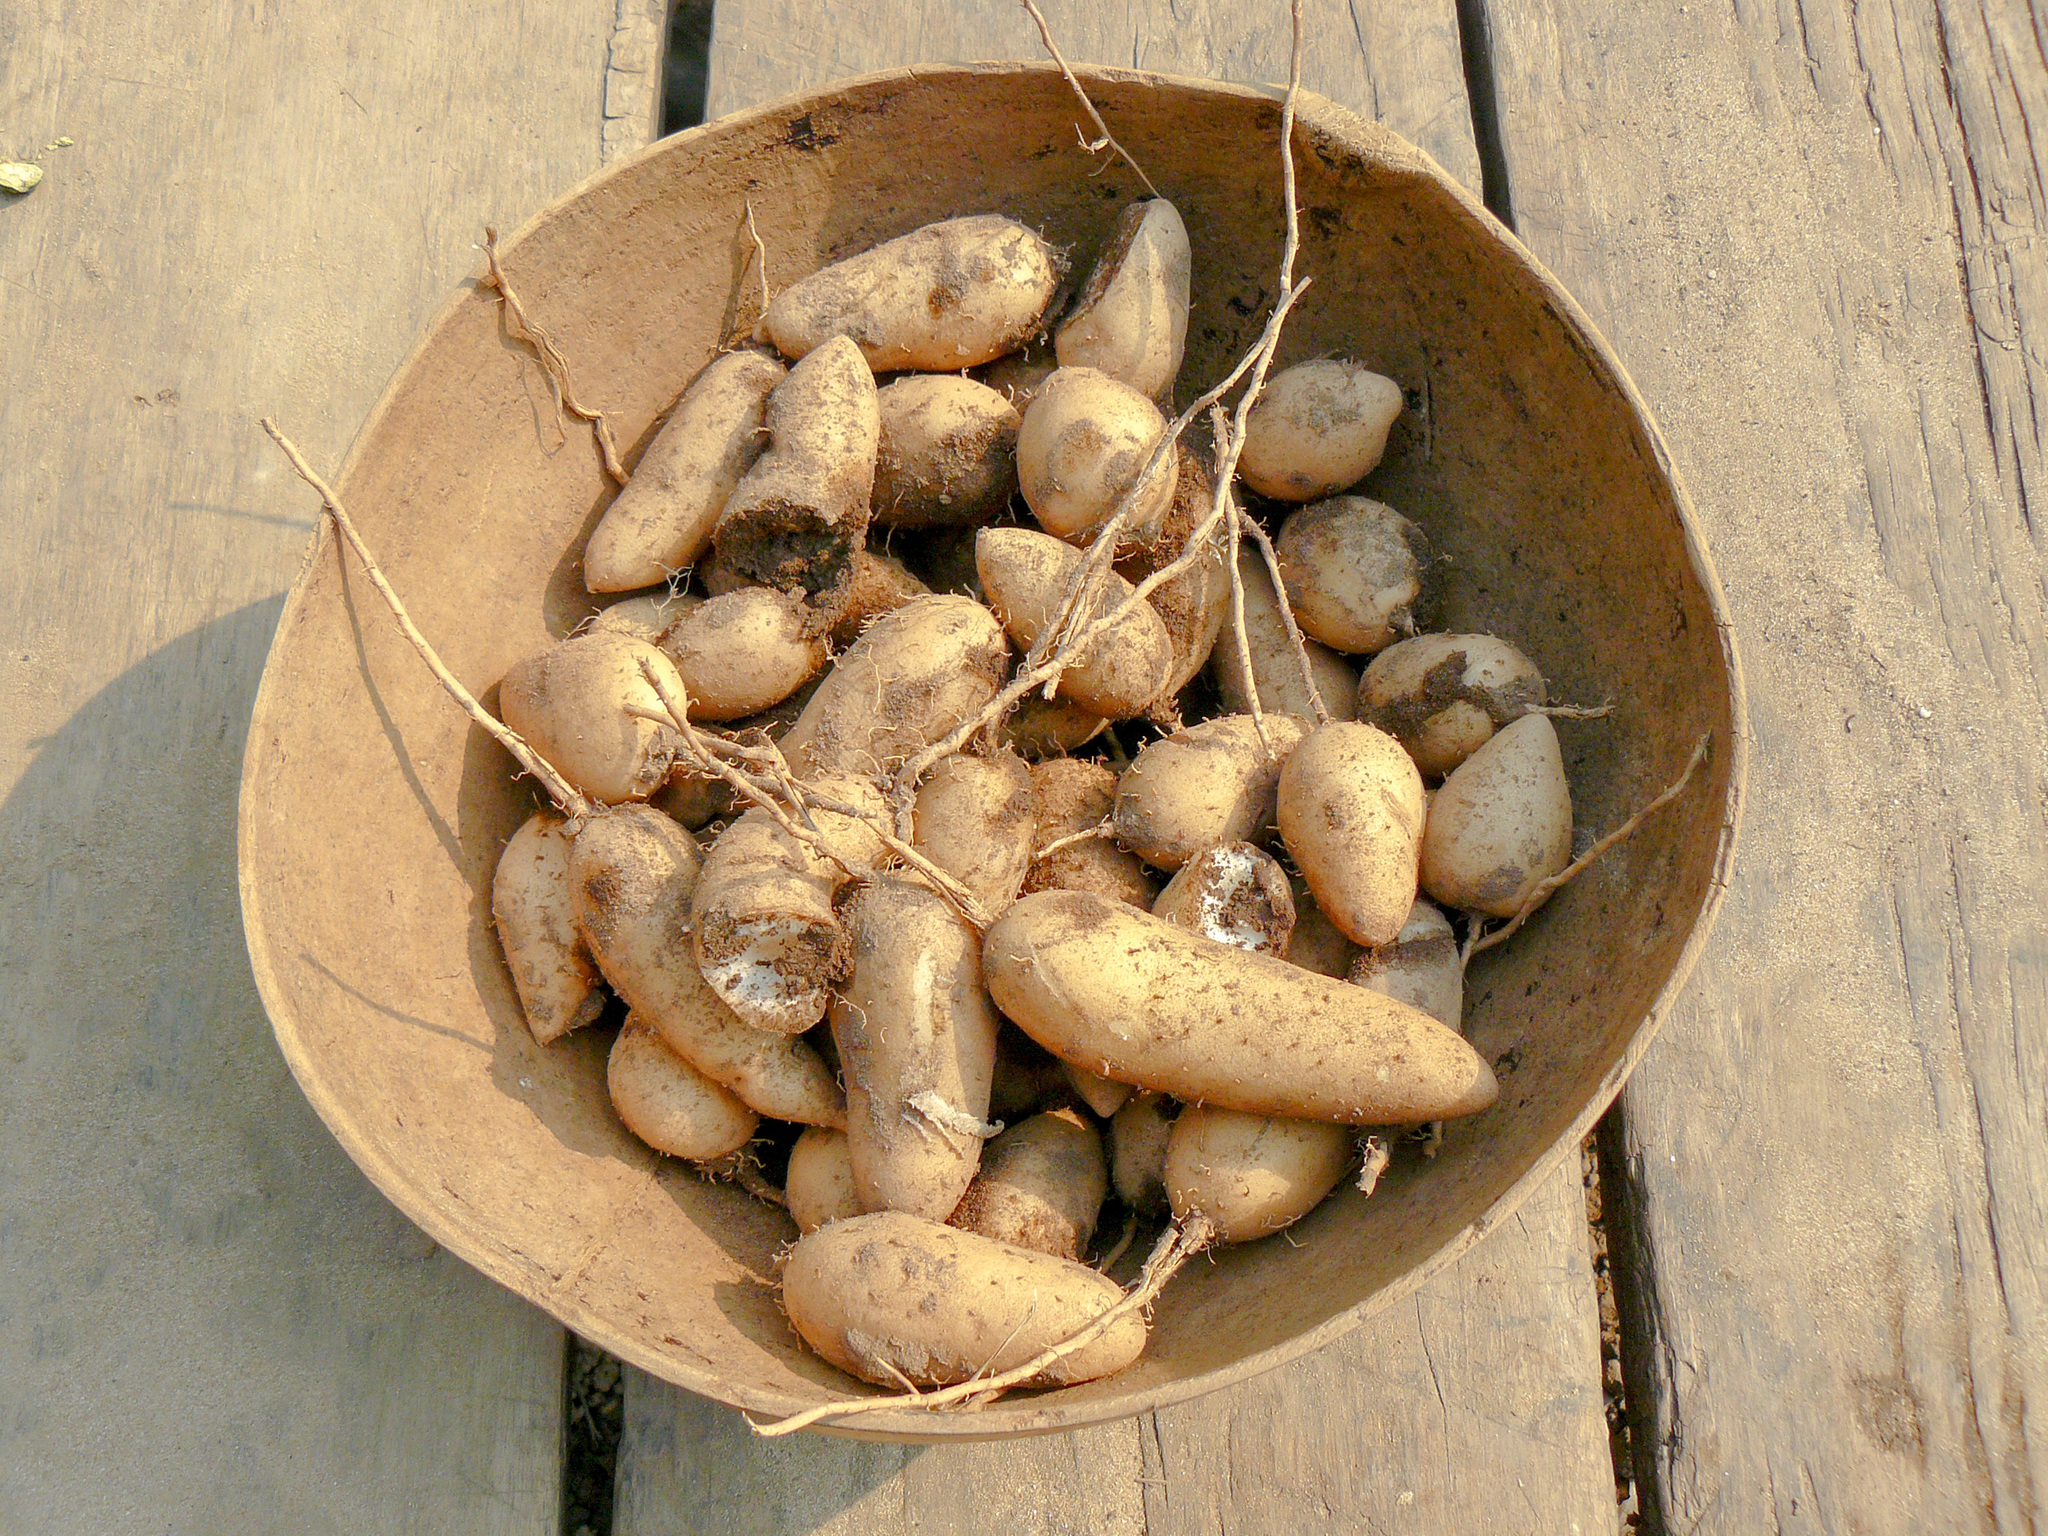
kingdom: Plantae
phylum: Tracheophyta
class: Liliopsida
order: Zingiberales
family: Marantaceae
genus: Goeppertia
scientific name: Goeppertia allouia
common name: Sweet corn-tuber
